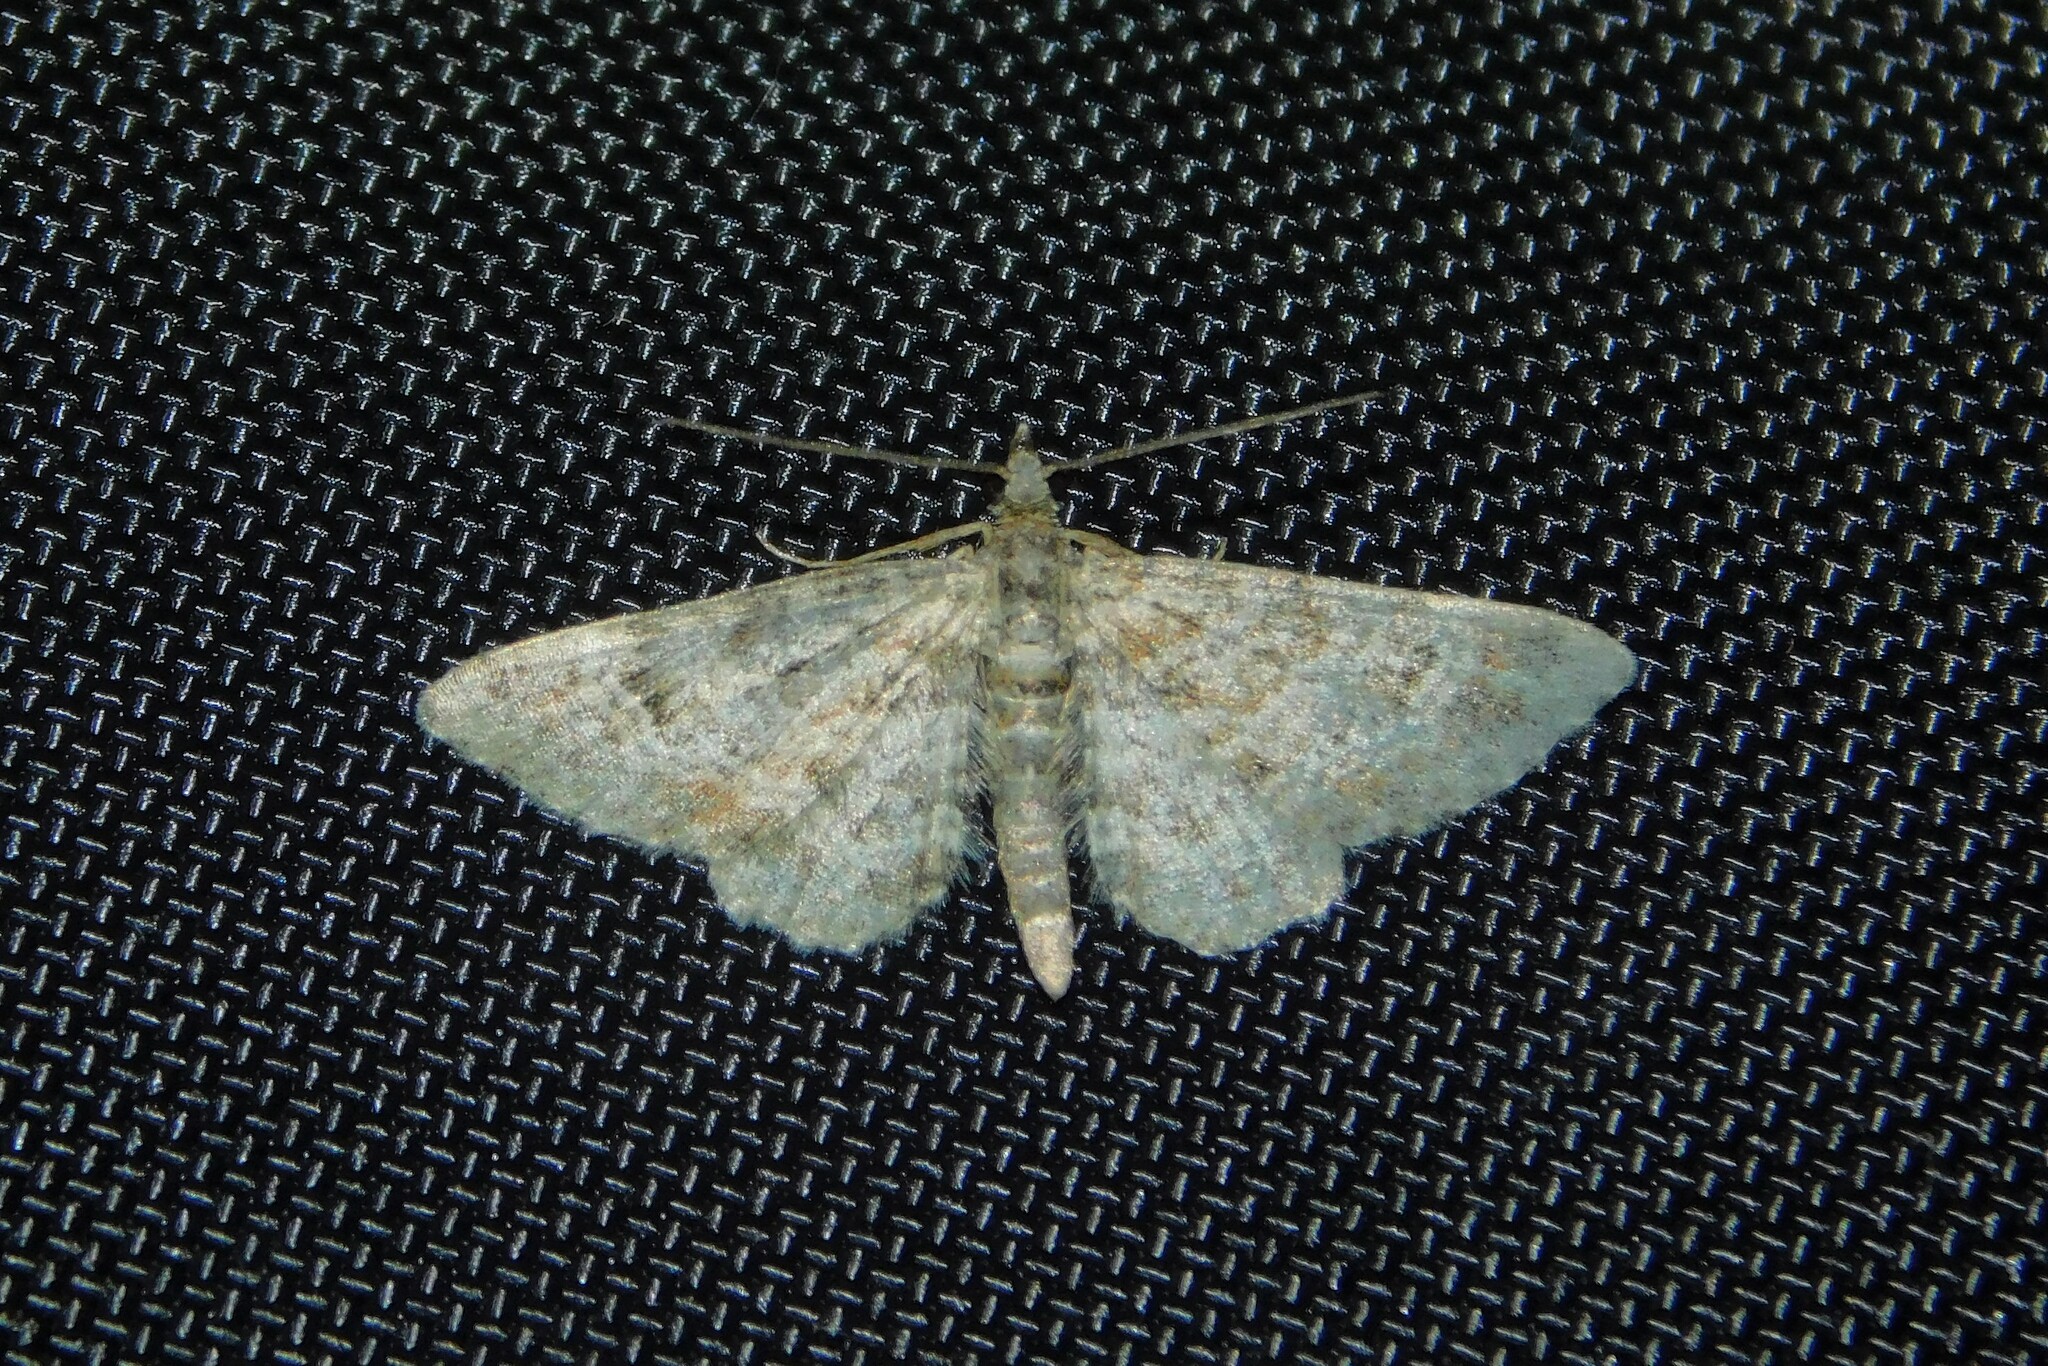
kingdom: Animalia
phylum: Arthropoda
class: Insecta
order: Lepidoptera
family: Geometridae
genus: Gymnoscelis
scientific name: Gymnoscelis rufifasciata
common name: Double-striped pug
